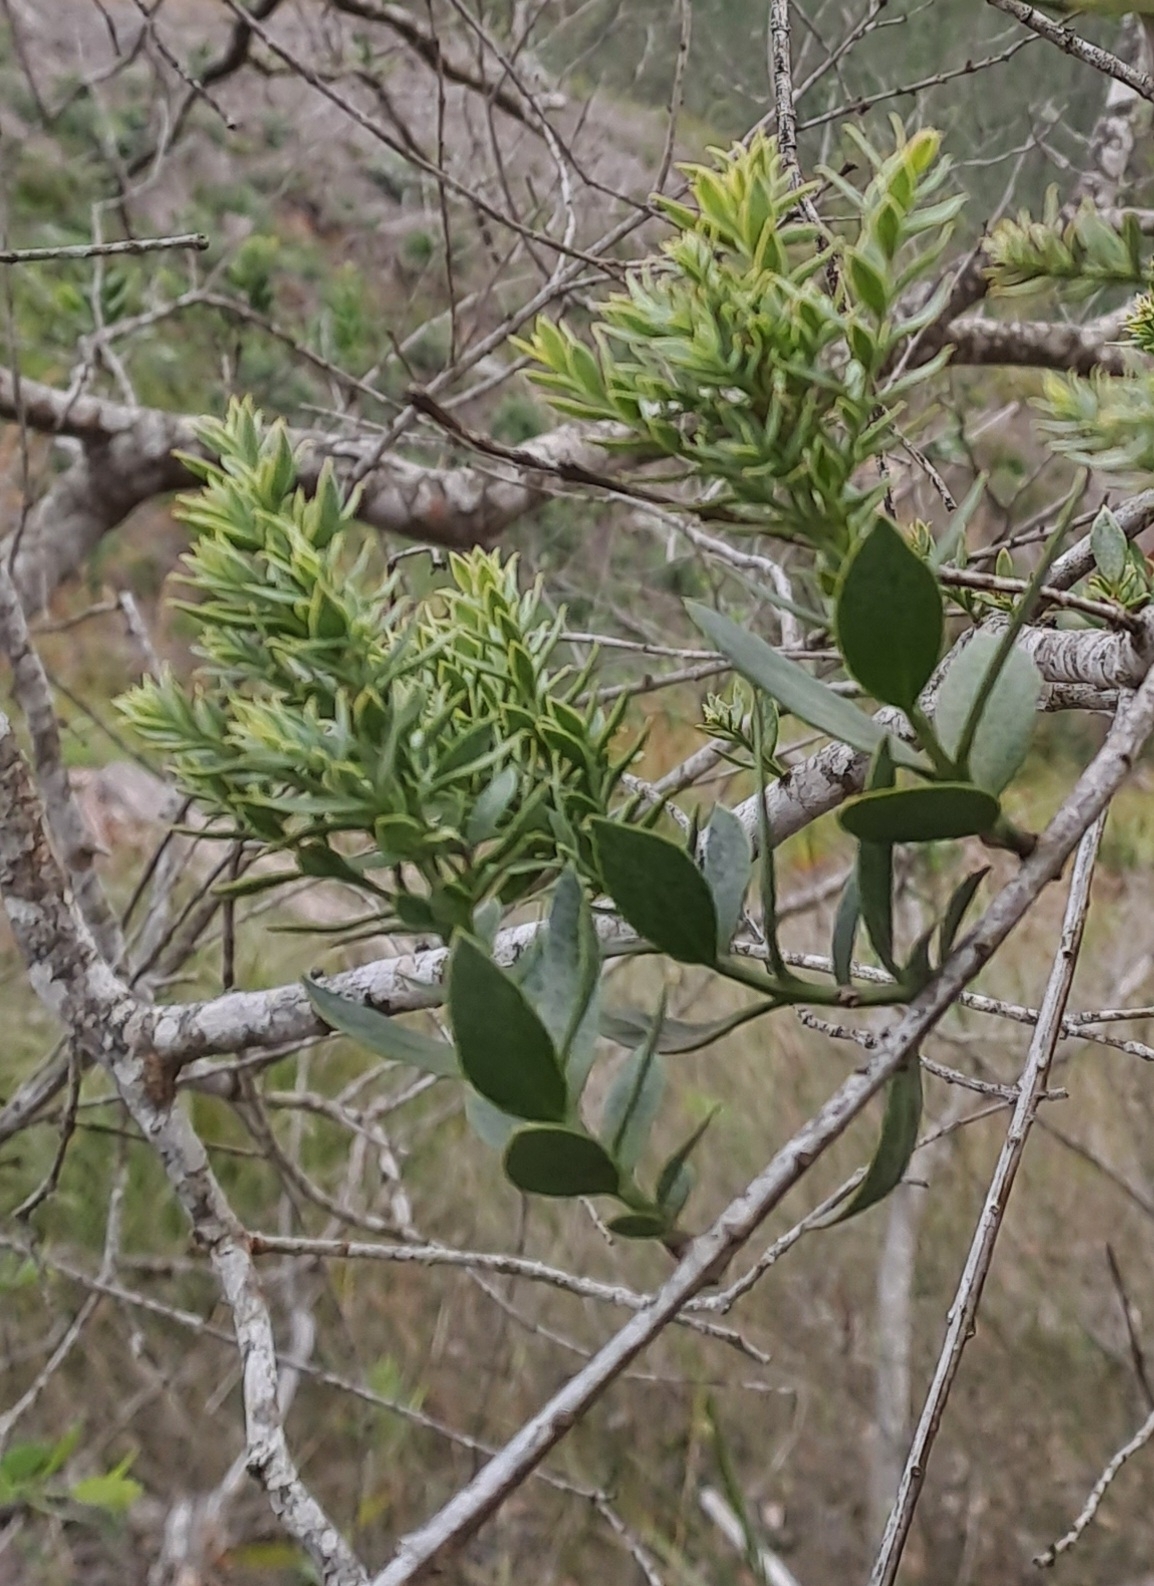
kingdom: Plantae
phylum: Tracheophyta
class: Magnoliopsida
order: Santalales
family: Santalaceae
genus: Osyris
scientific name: Osyris compressa
